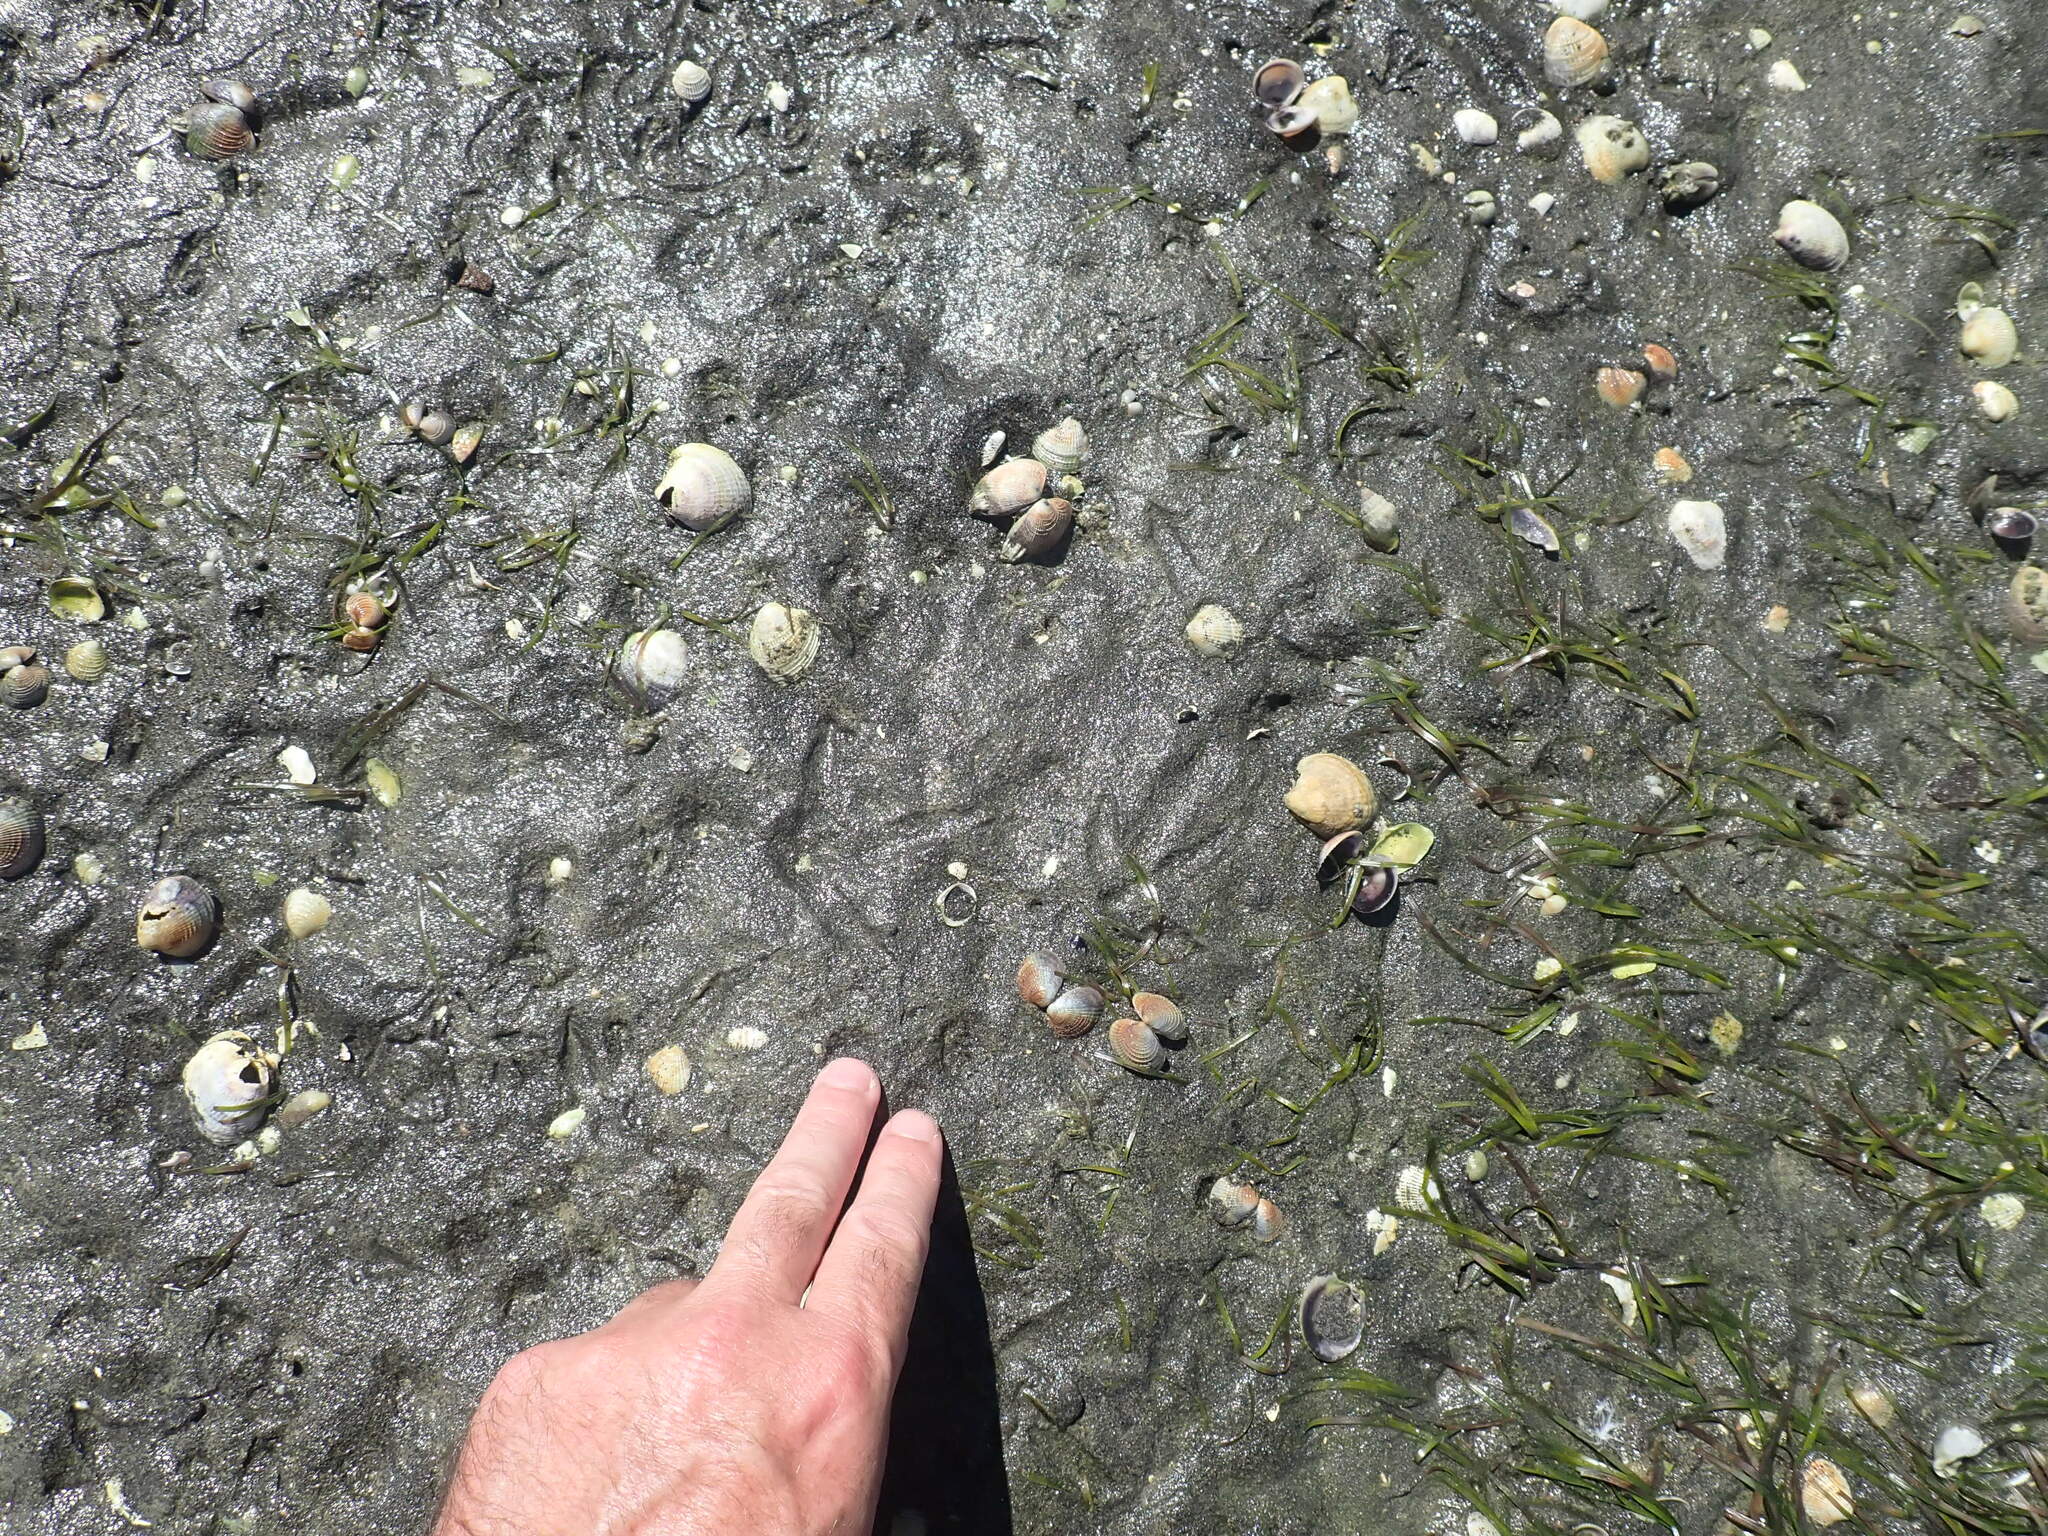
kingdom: Animalia
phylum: Chordata
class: Aves
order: Pelecaniformes
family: Ardeidae
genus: Egretta
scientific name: Egretta novaehollandiae
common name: White-faced heron
